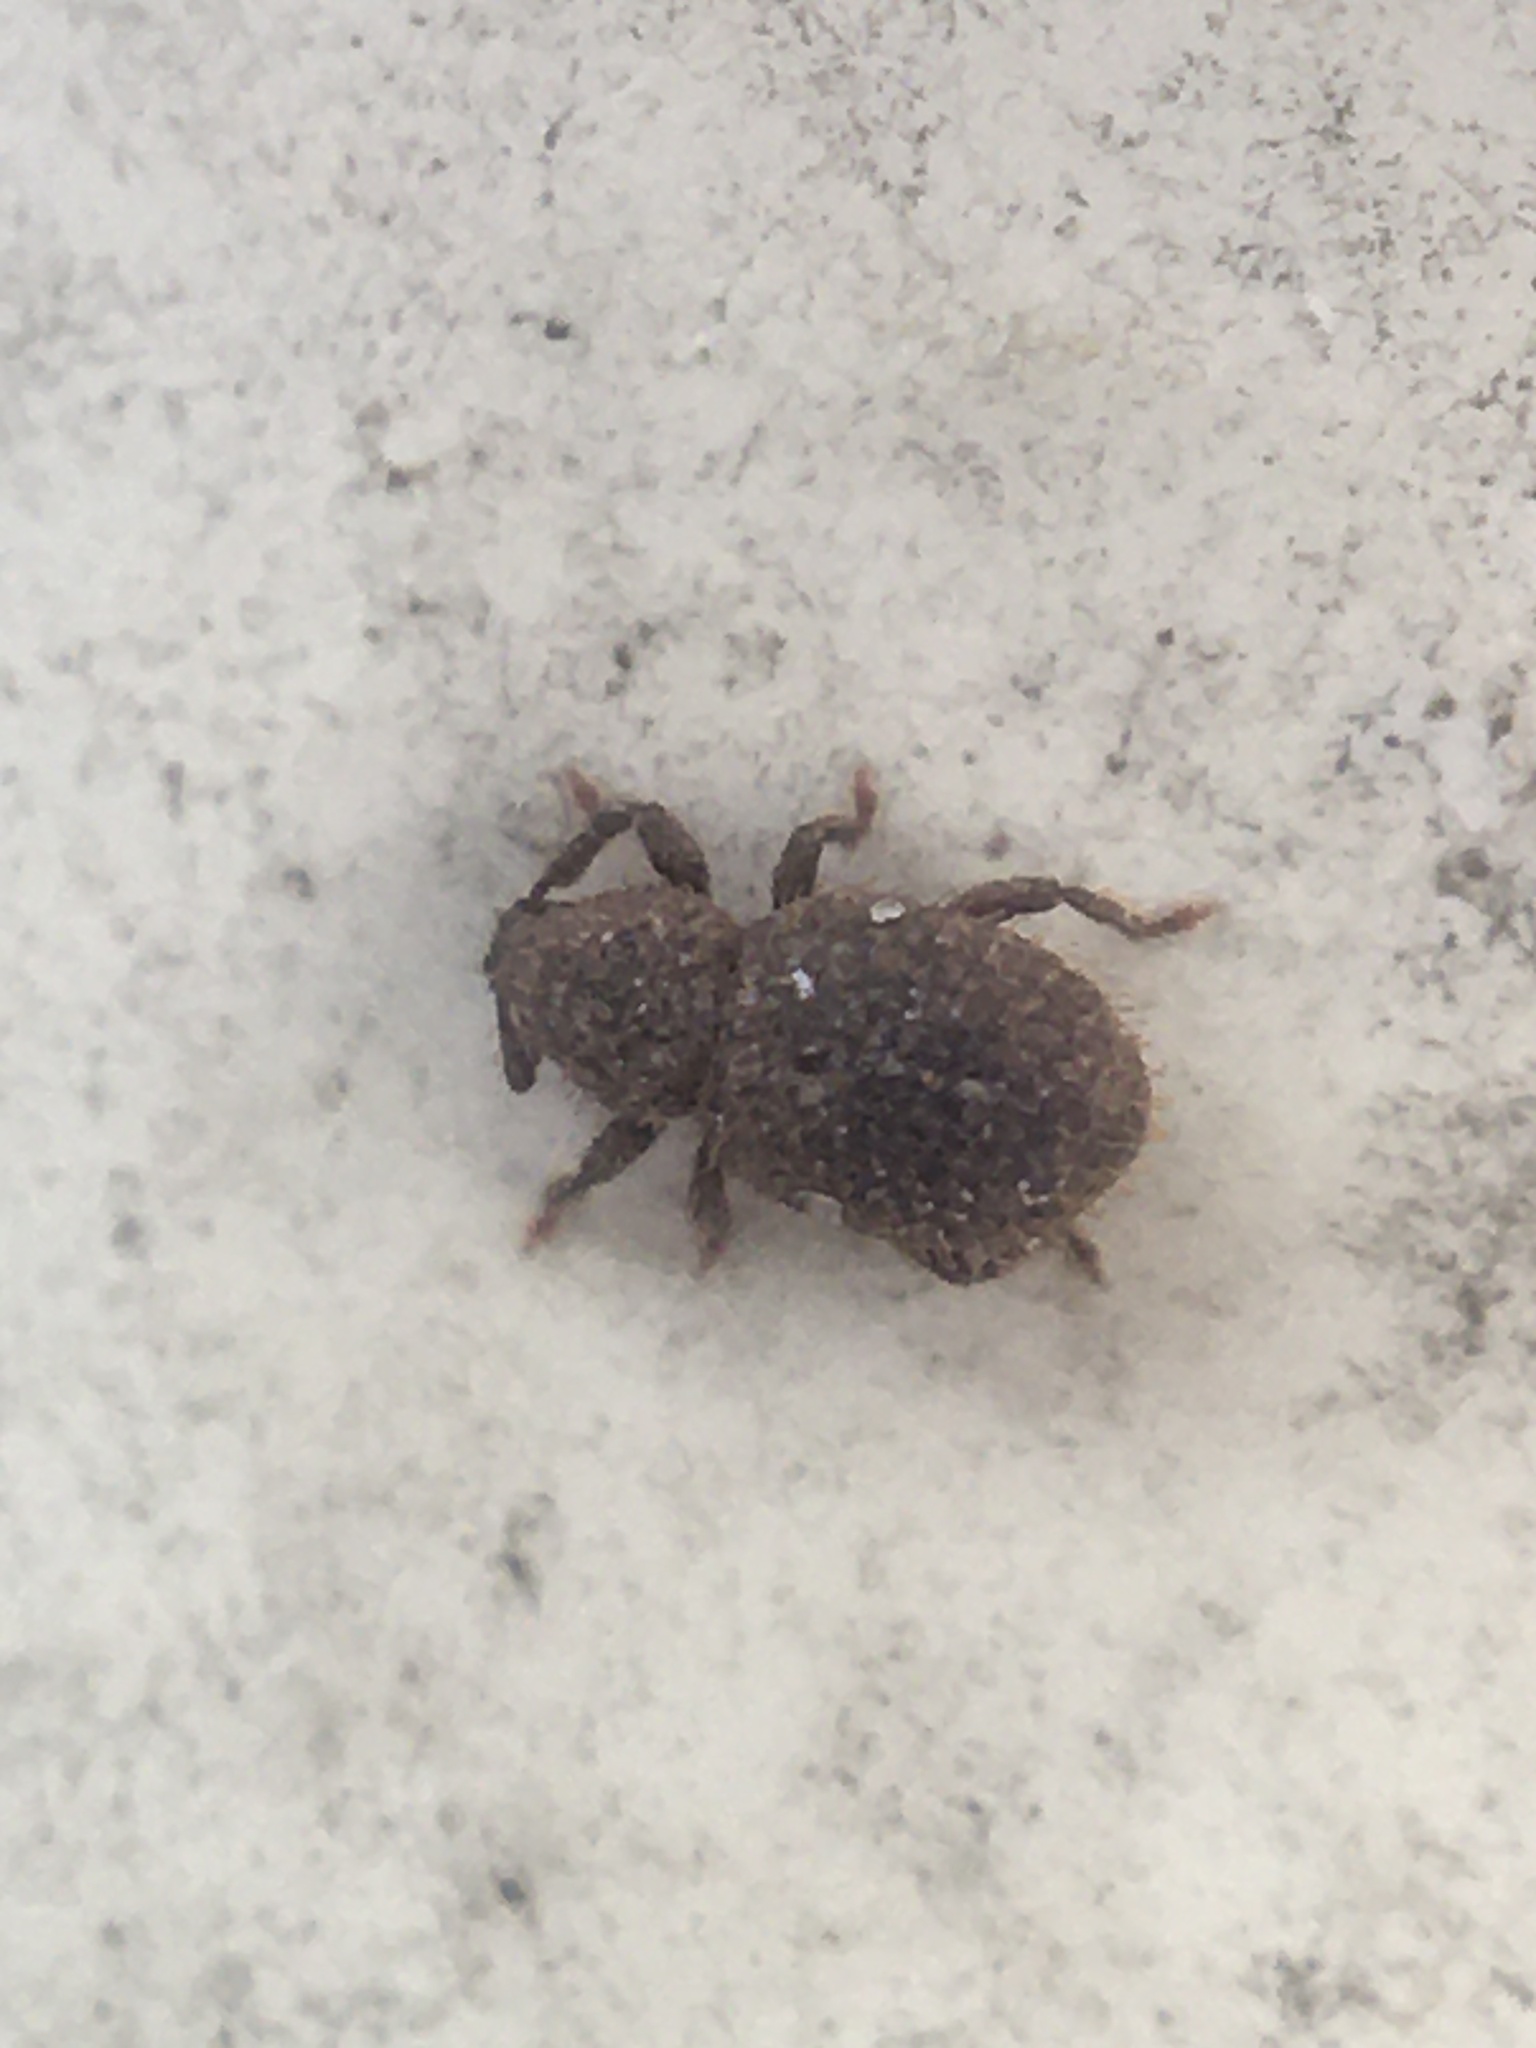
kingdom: Animalia
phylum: Arthropoda
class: Insecta
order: Coleoptera
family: Curculionidae
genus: Trachyphloeosoma
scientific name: Trachyphloeosoma advena
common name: Weevil
